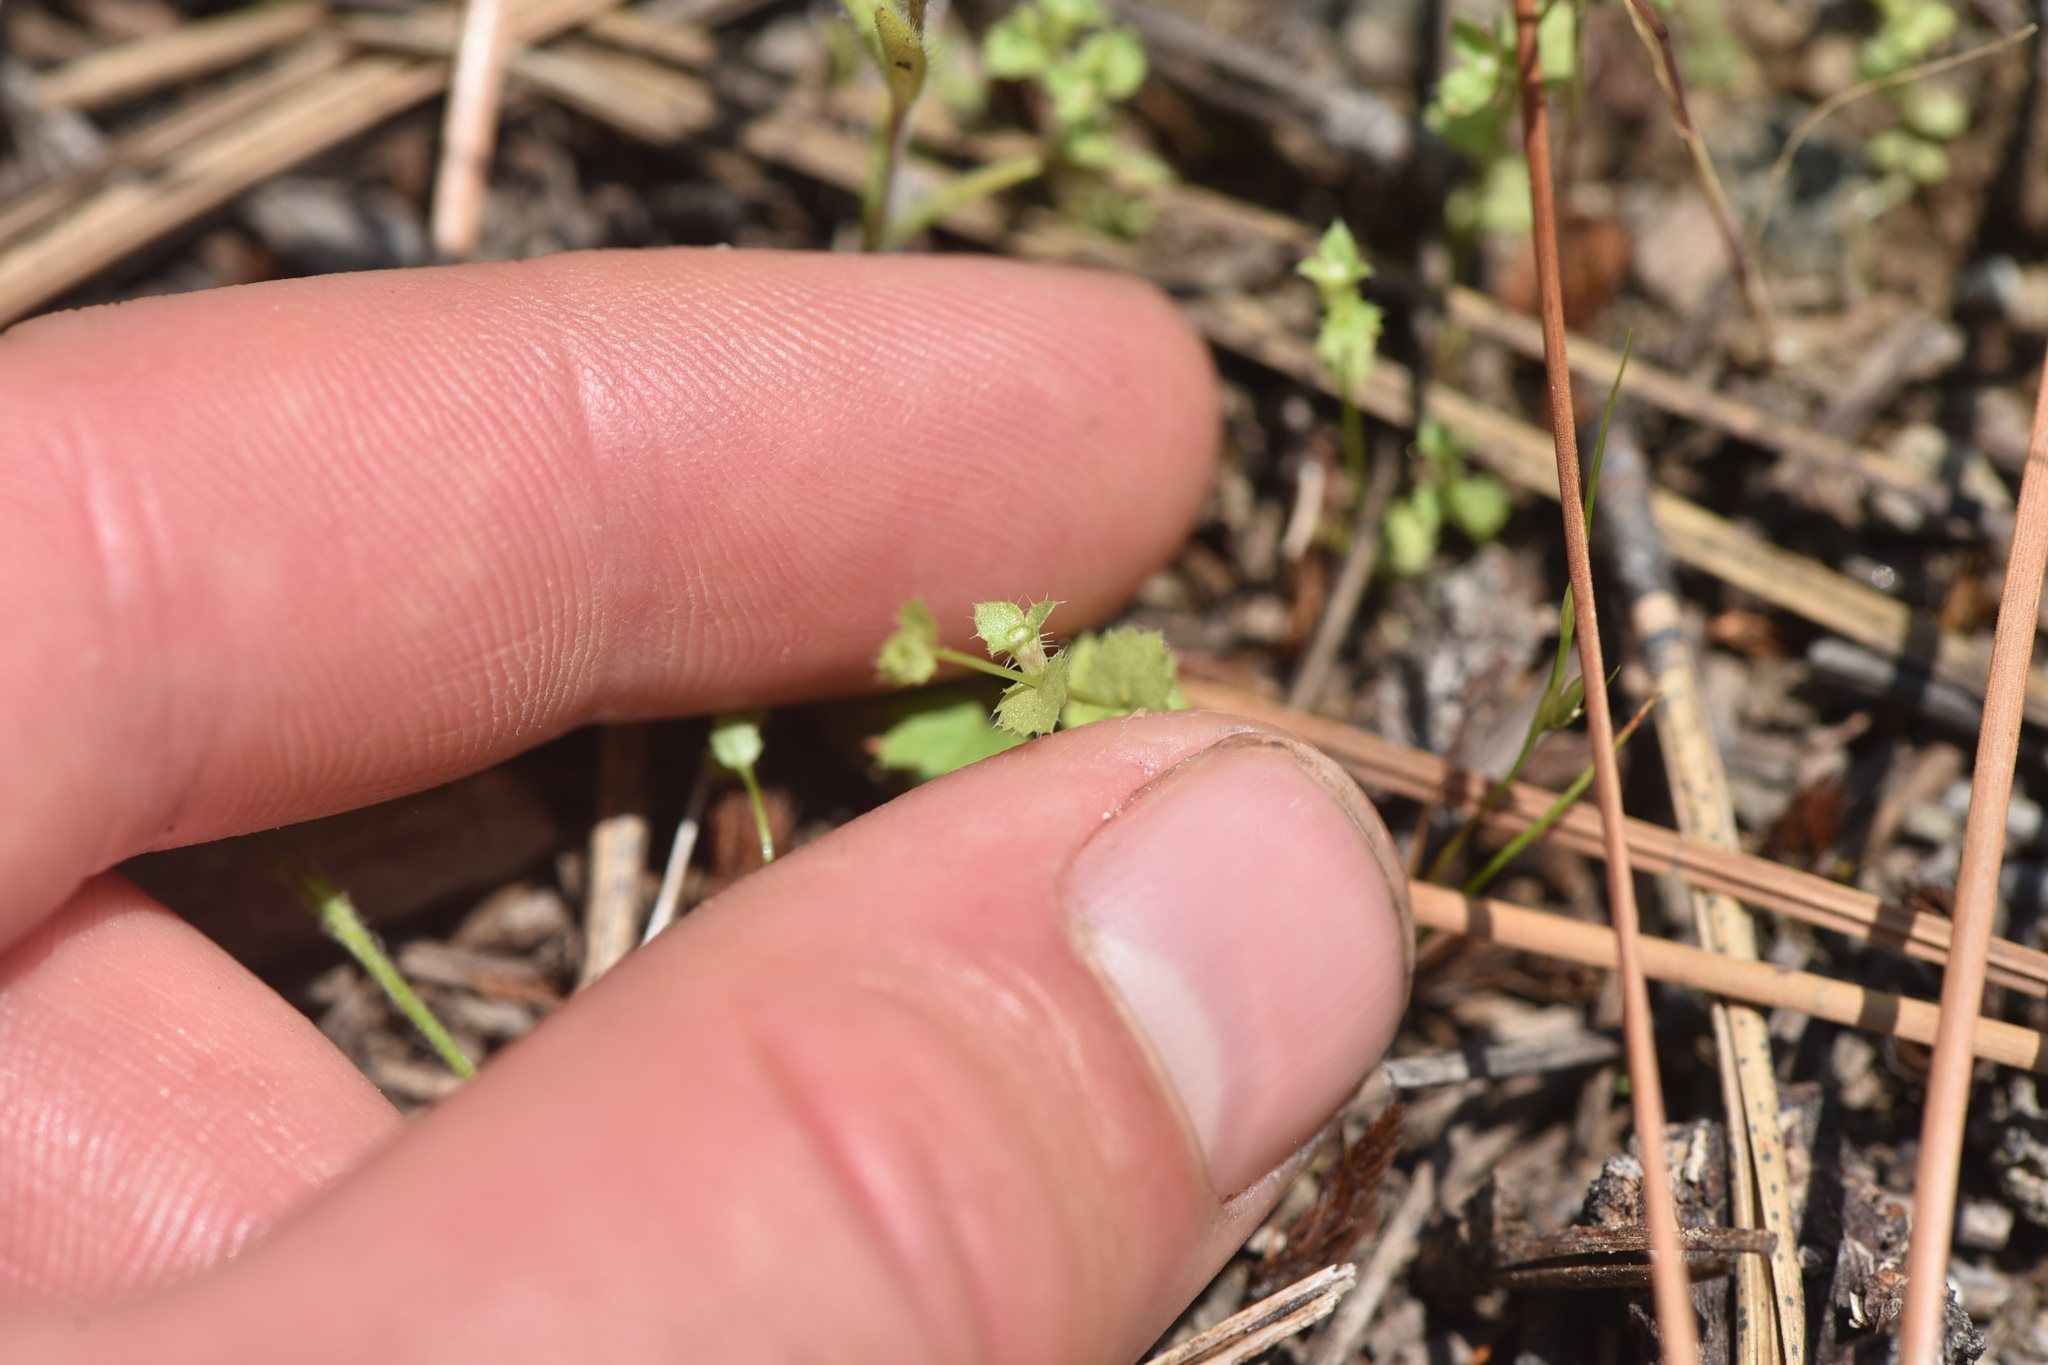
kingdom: Plantae
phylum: Tracheophyta
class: Magnoliopsida
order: Asterales
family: Campanulaceae
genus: Heterocodon
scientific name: Heterocodon rariflorum
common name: Rareflower heterocodon
